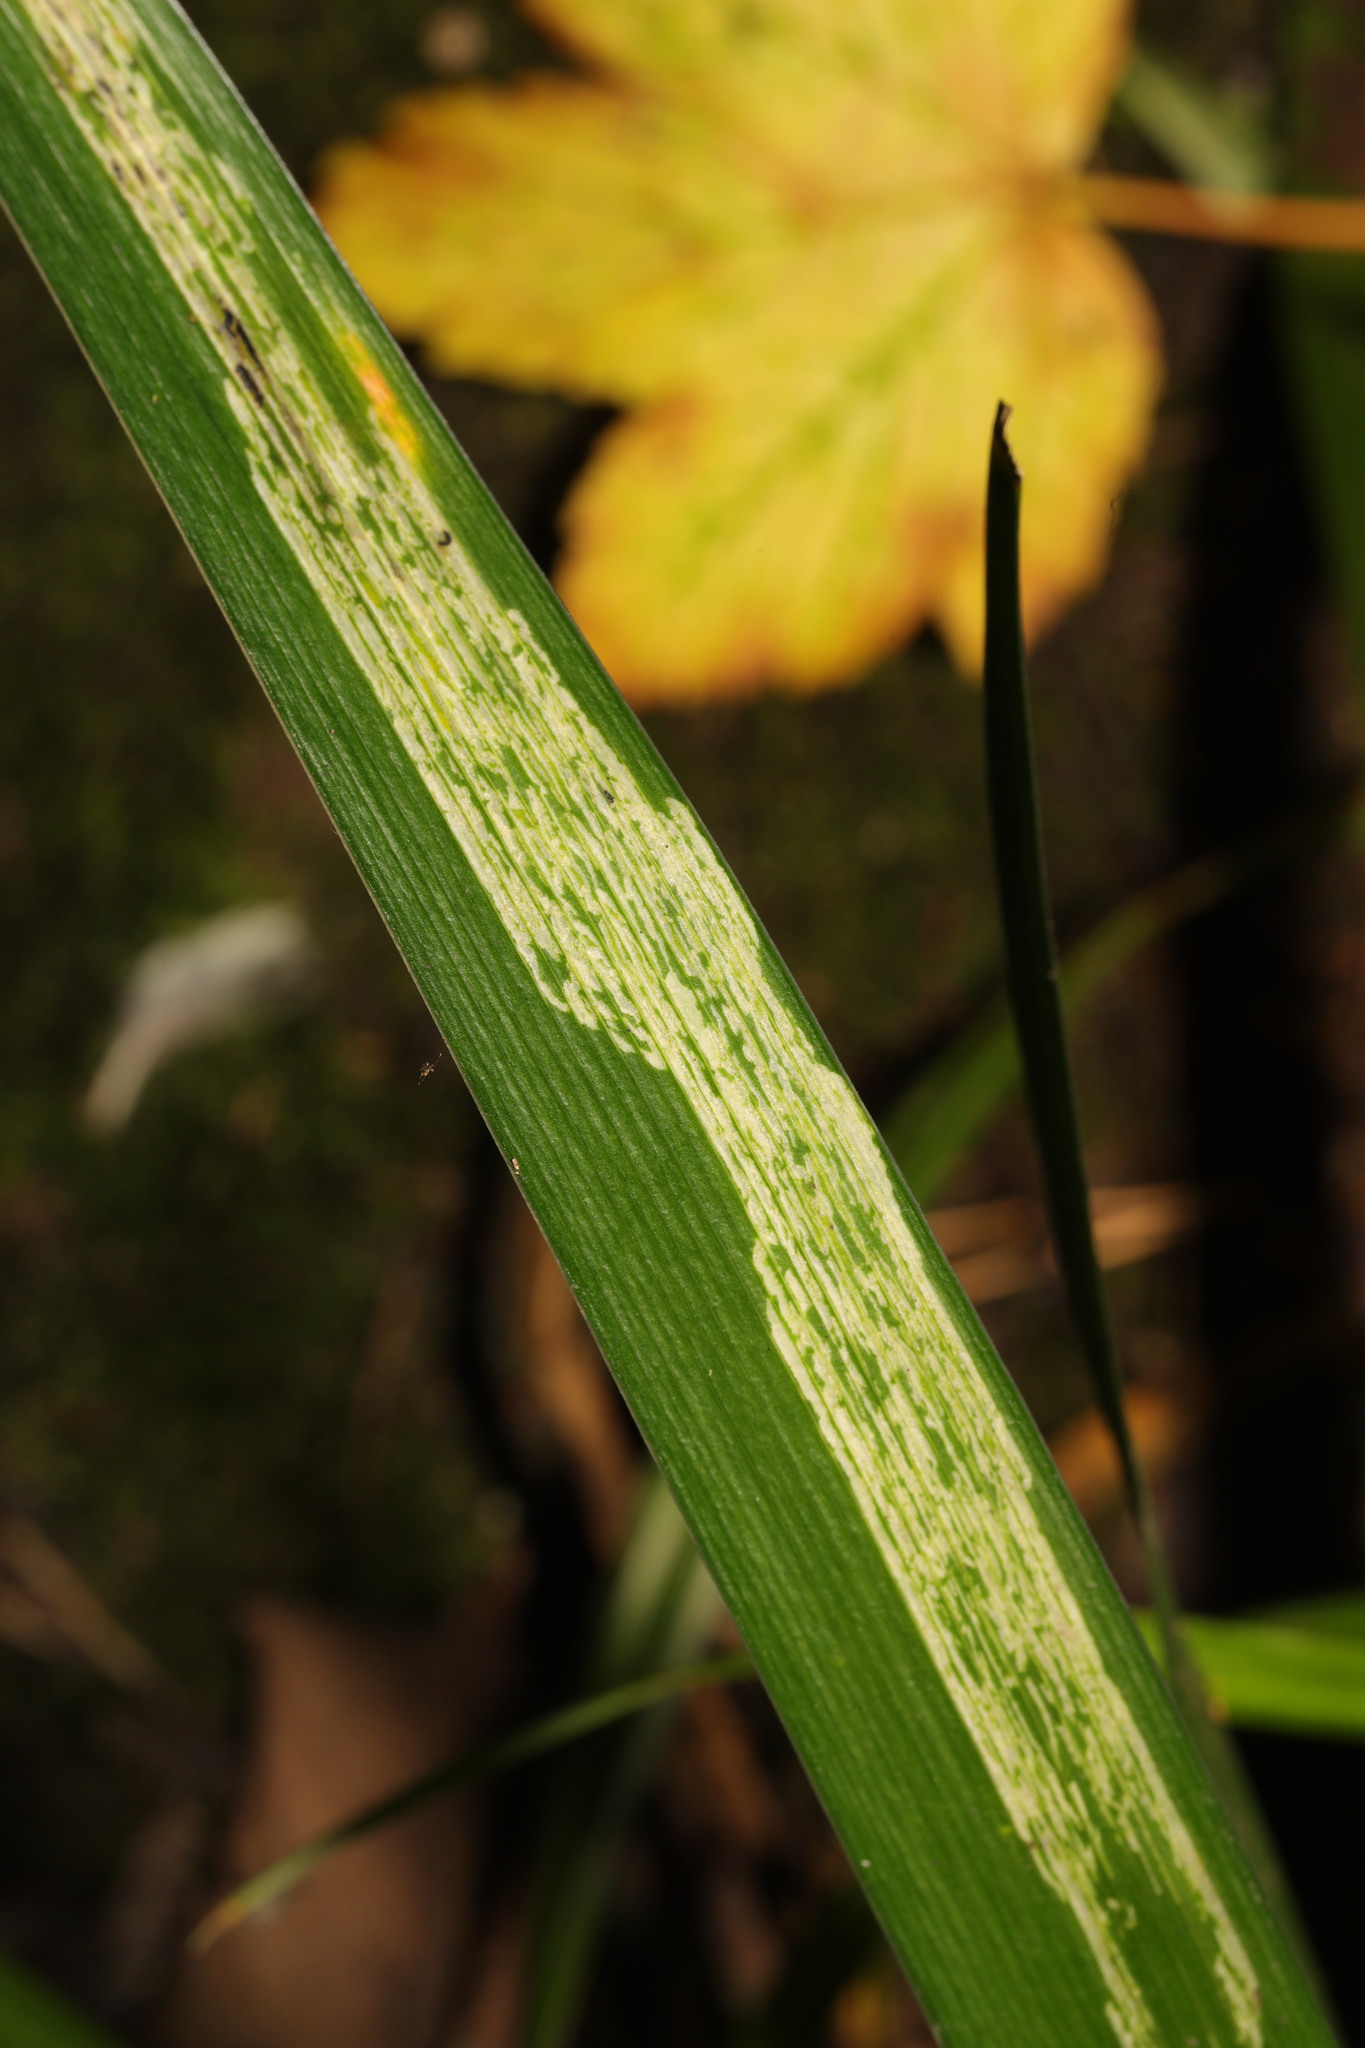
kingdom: Animalia
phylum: Arthropoda
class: Insecta
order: Diptera
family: Agromyzidae
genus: Phytobia
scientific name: Phytobia iridis
